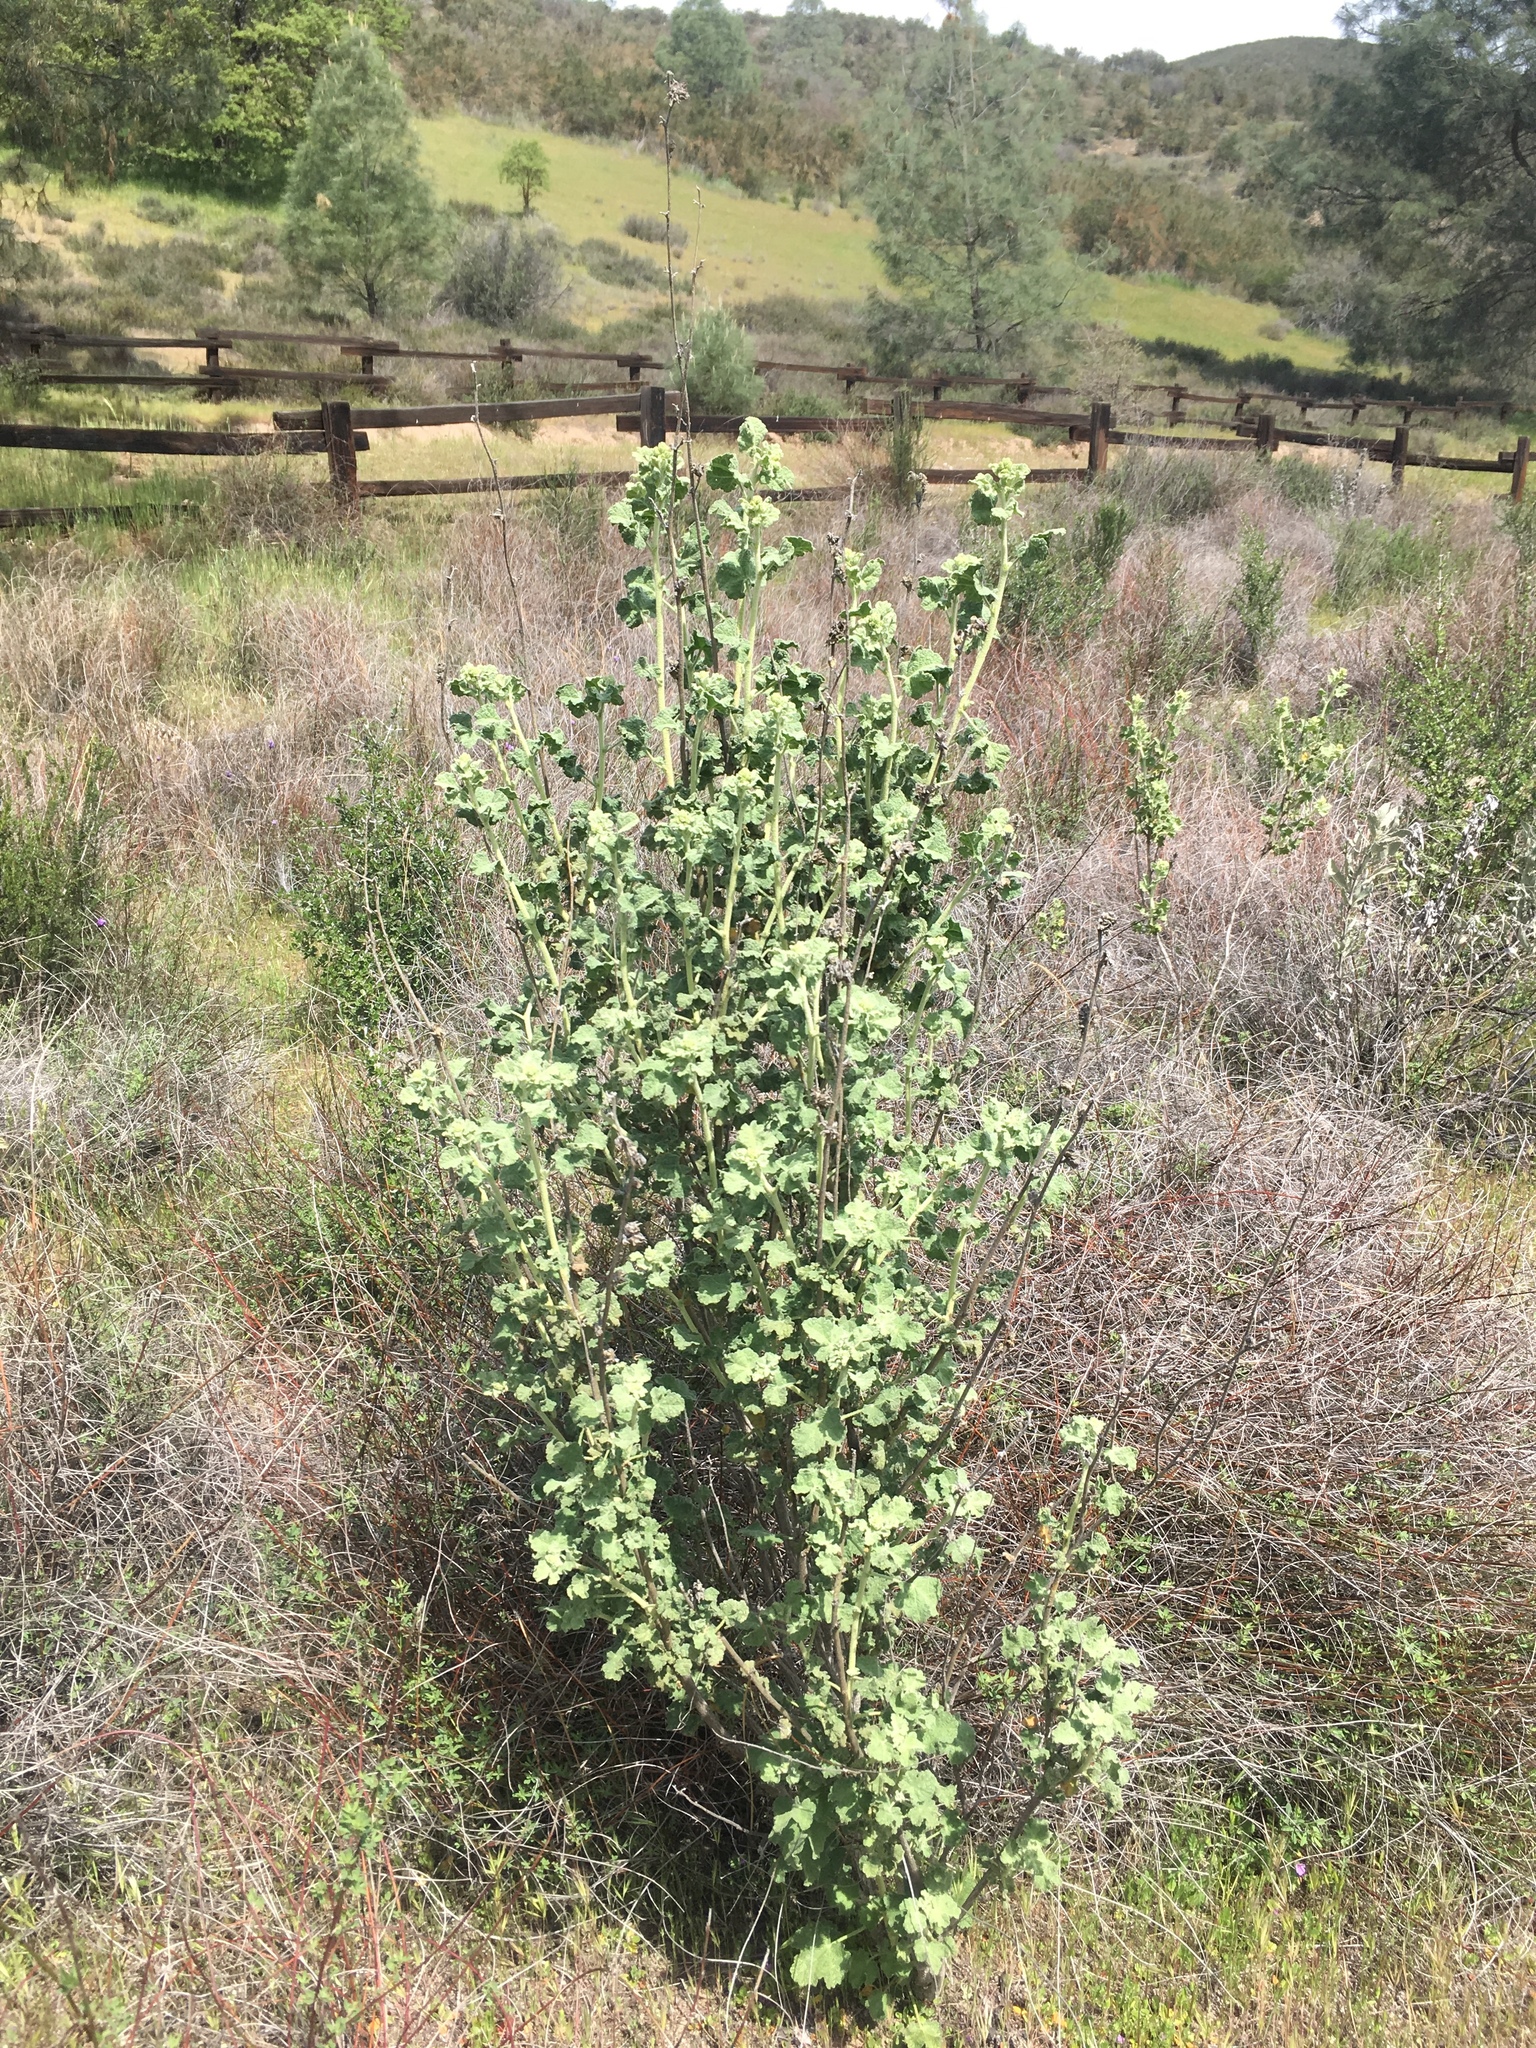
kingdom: Plantae
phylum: Tracheophyta
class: Magnoliopsida
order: Malvales
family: Malvaceae
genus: Malacothamnus
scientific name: Malacothamnus aboriginum
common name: Indian valley bush-mallow
